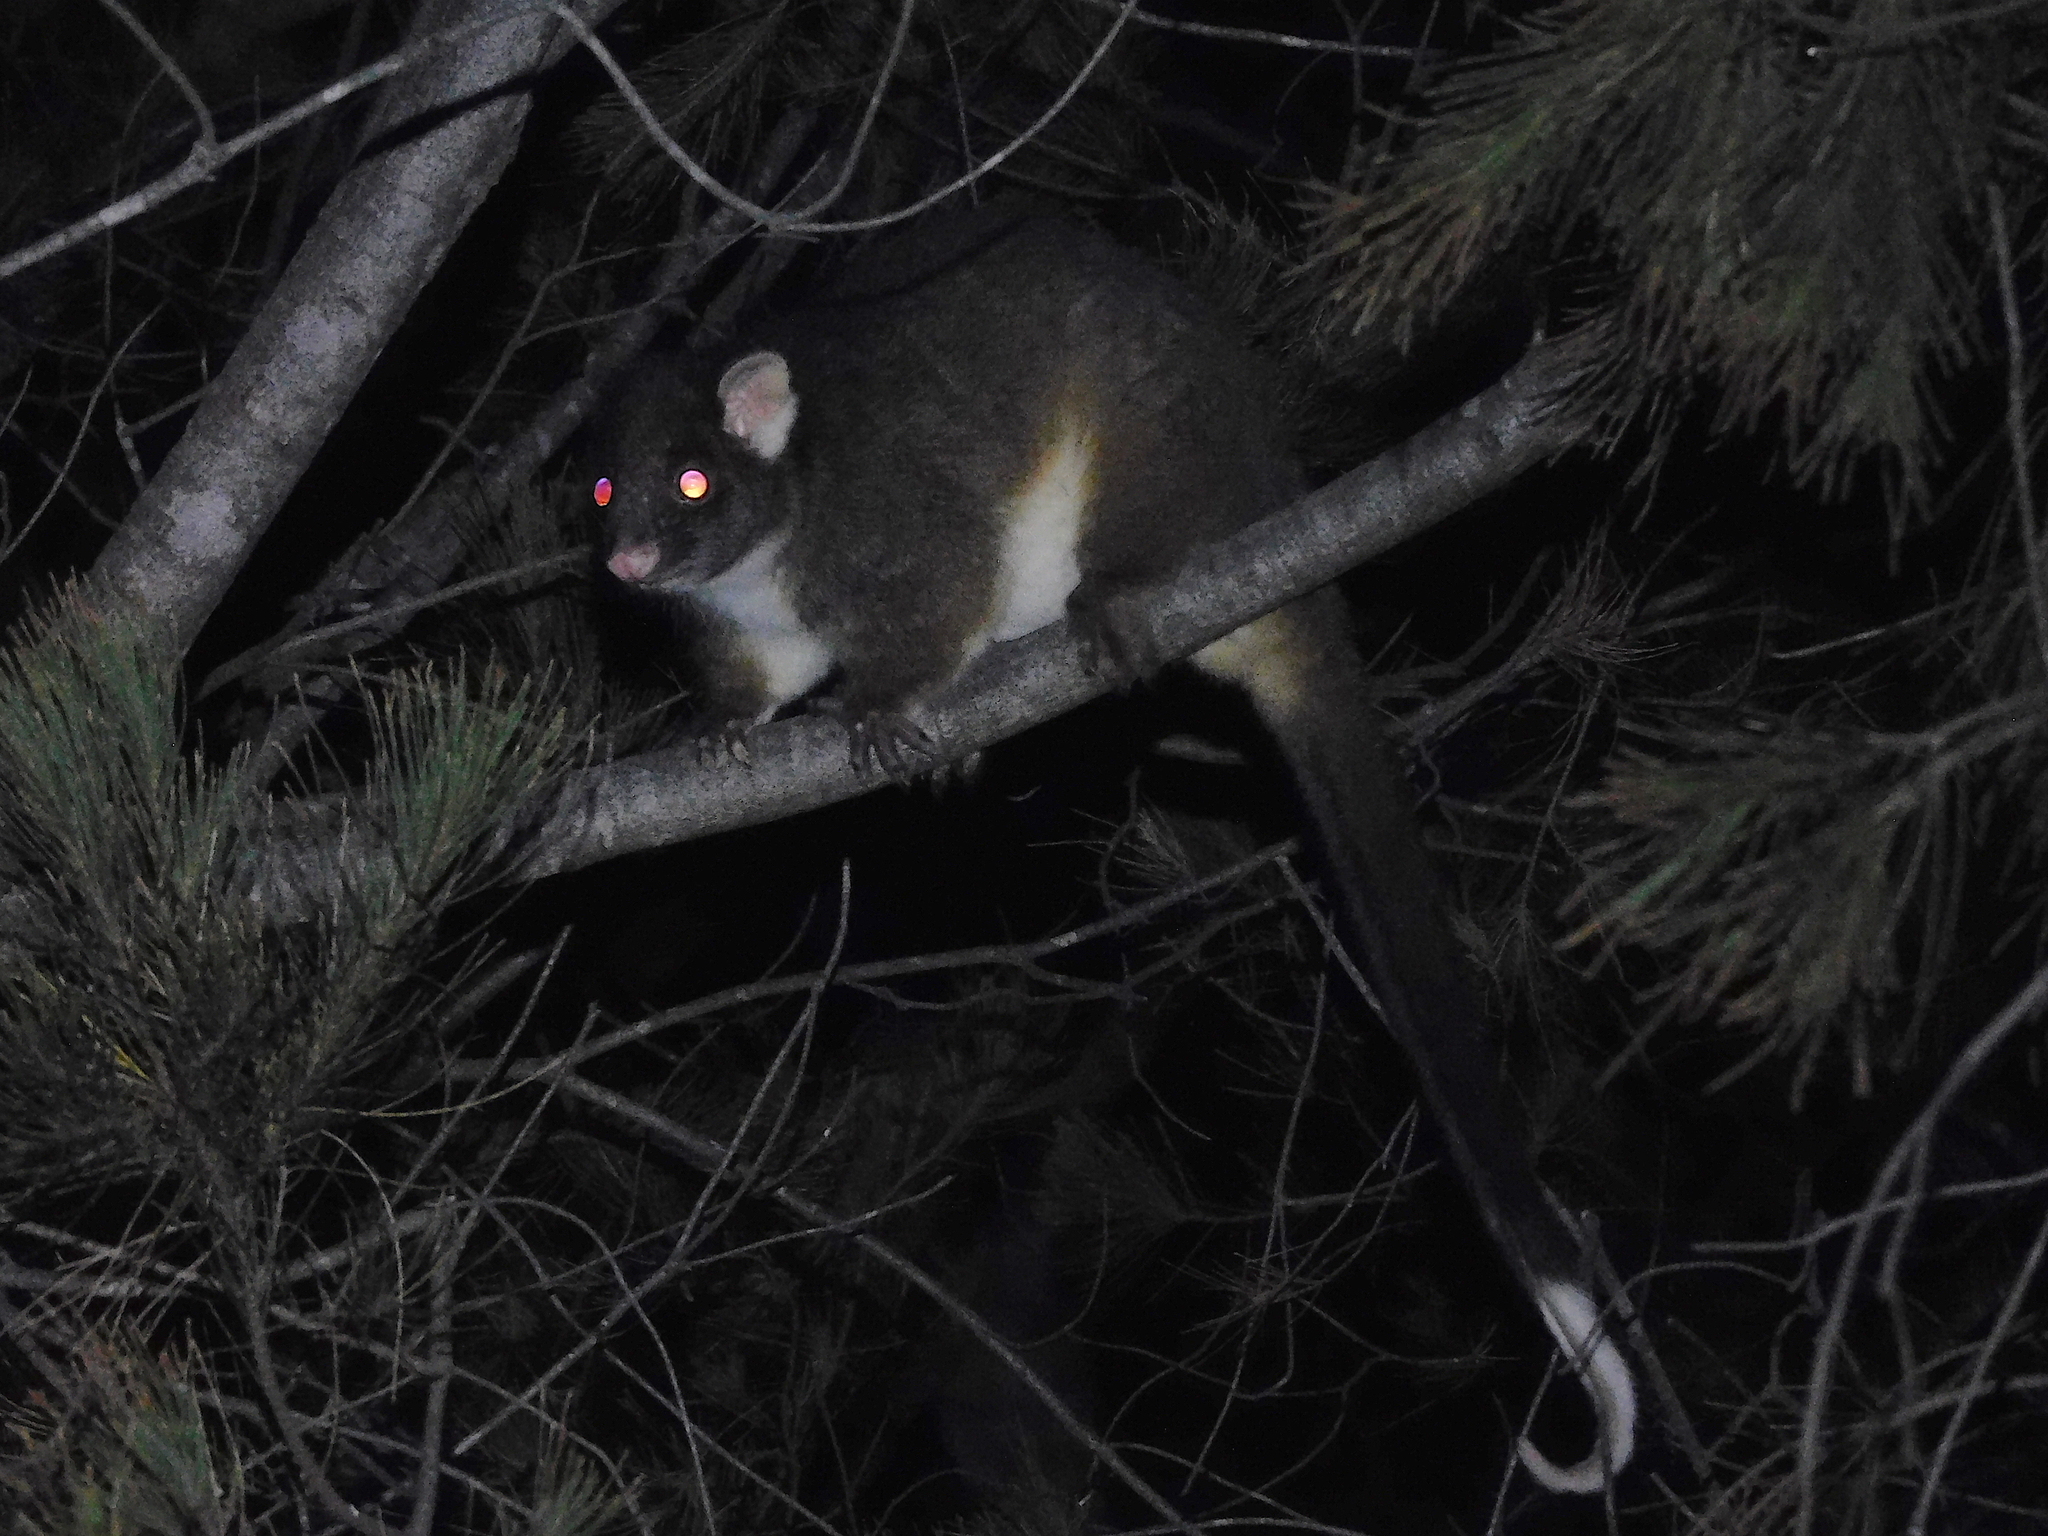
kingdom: Animalia
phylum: Chordata
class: Mammalia
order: Diprotodontia
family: Pseudocheiridae
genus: Pseudocheirus
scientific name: Pseudocheirus peregrinus
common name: Common ringtail possum
